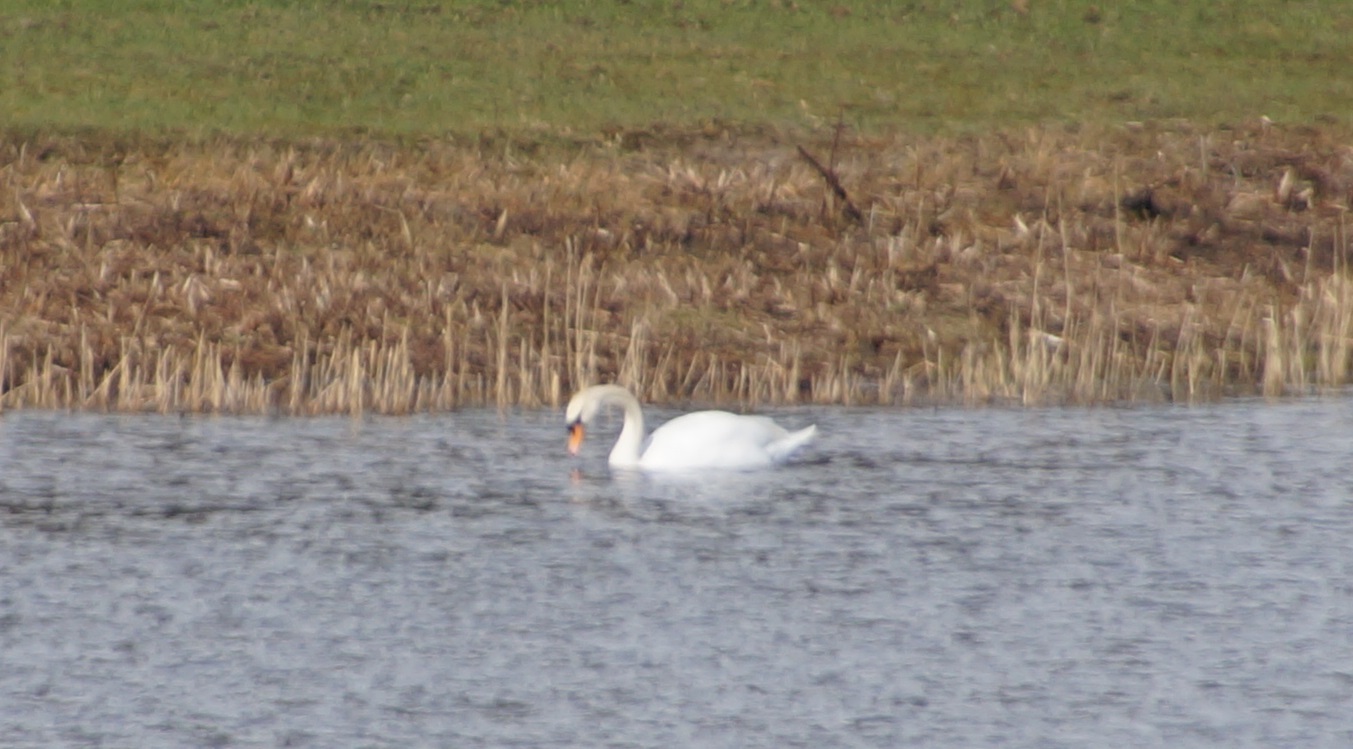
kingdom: Animalia
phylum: Chordata
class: Aves
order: Anseriformes
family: Anatidae
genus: Cygnus
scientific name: Cygnus olor
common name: Mute swan
